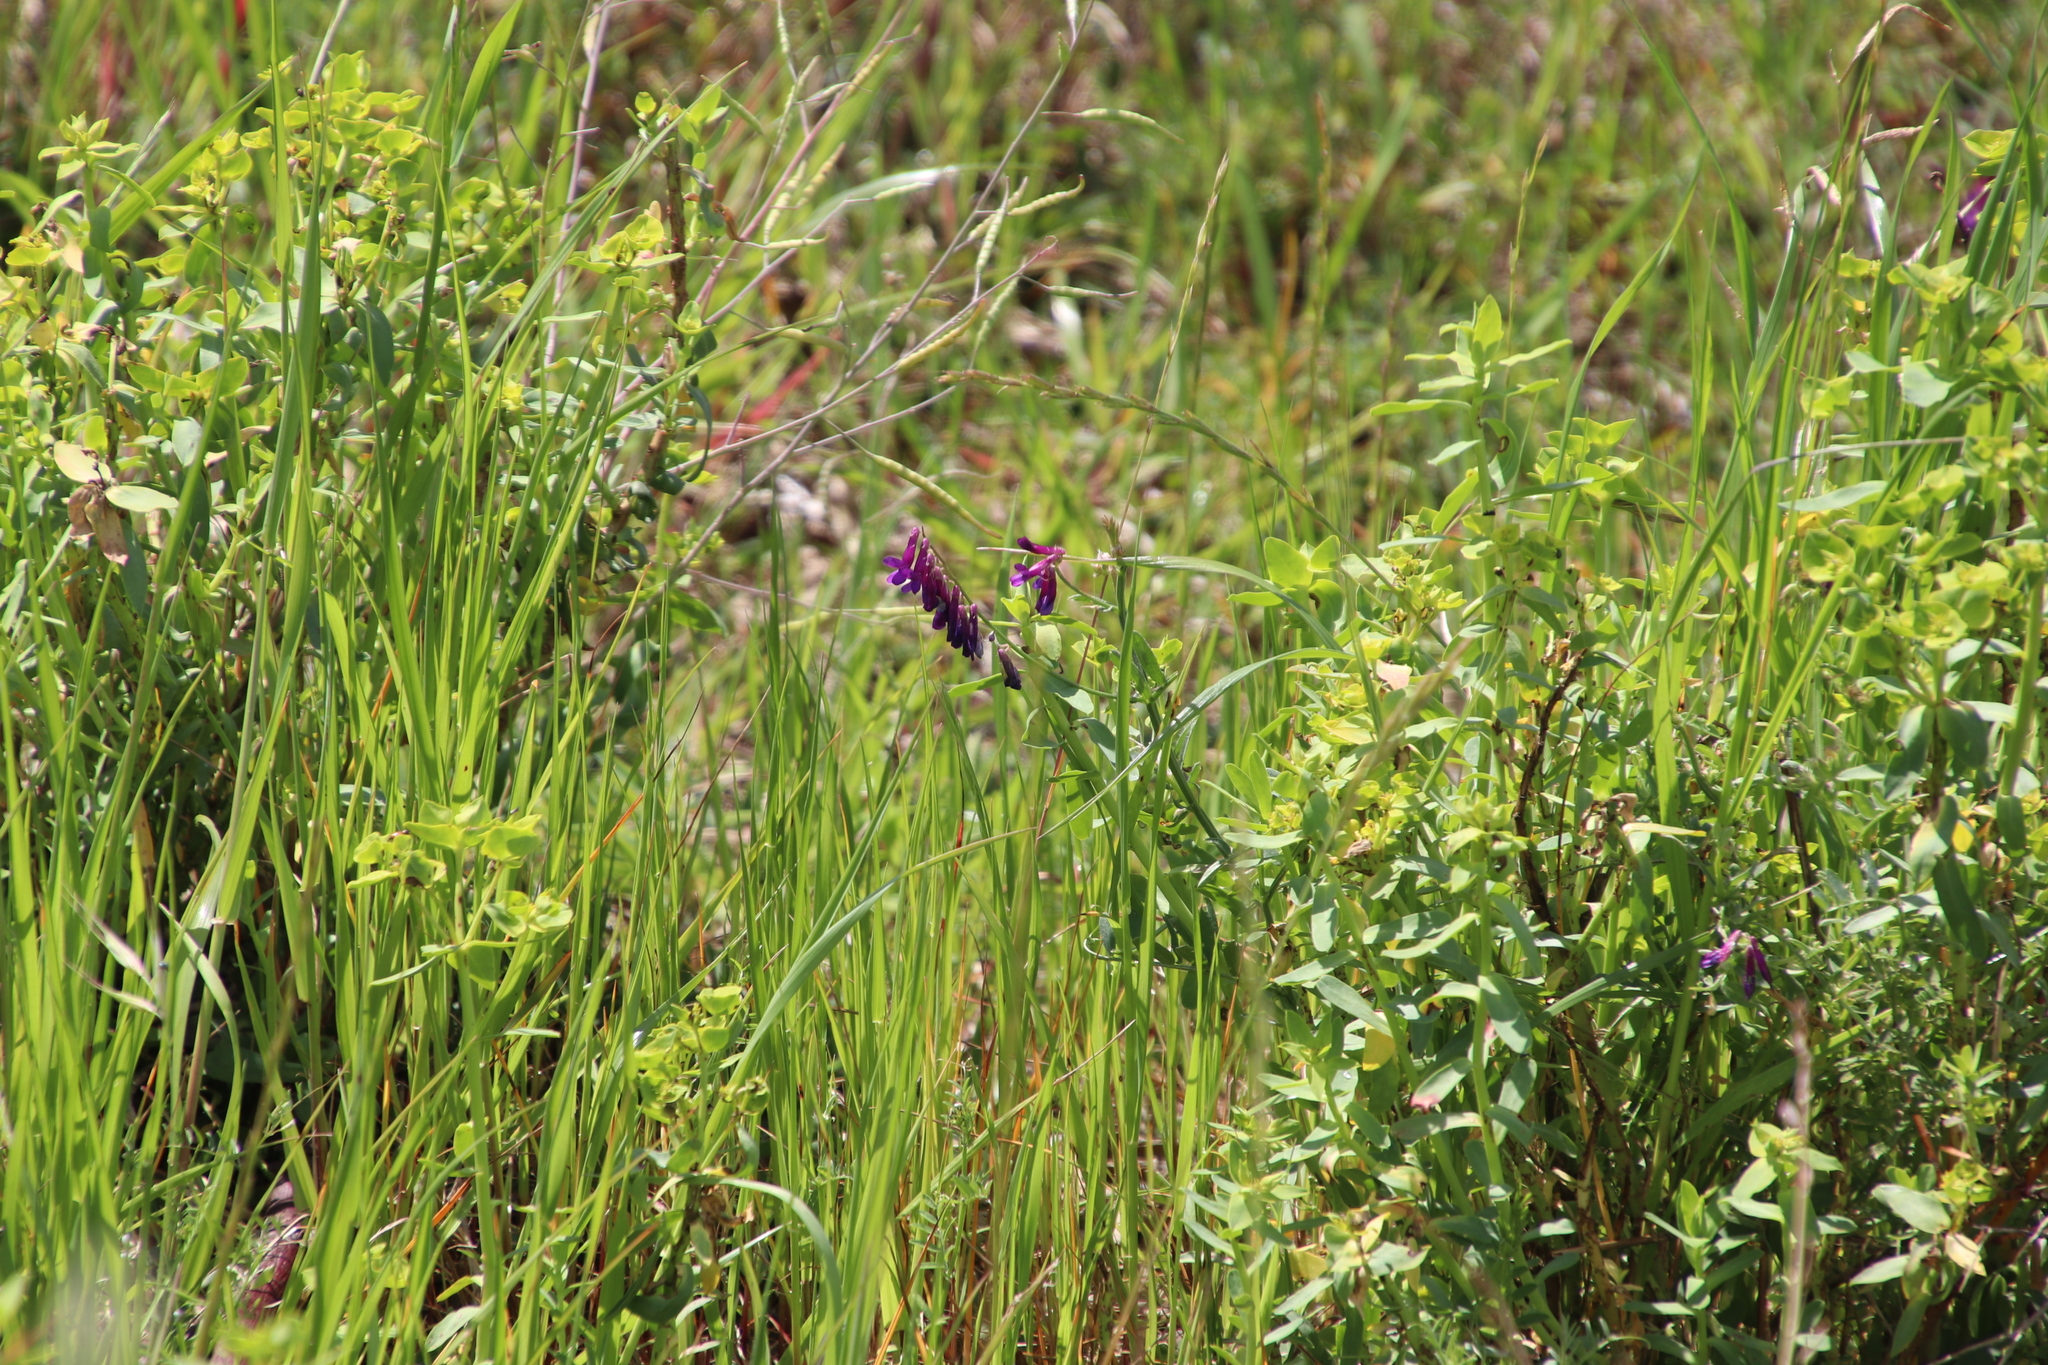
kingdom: Plantae
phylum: Tracheophyta
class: Magnoliopsida
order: Fabales
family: Fabaceae
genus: Vicia
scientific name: Vicia eriocarpa
